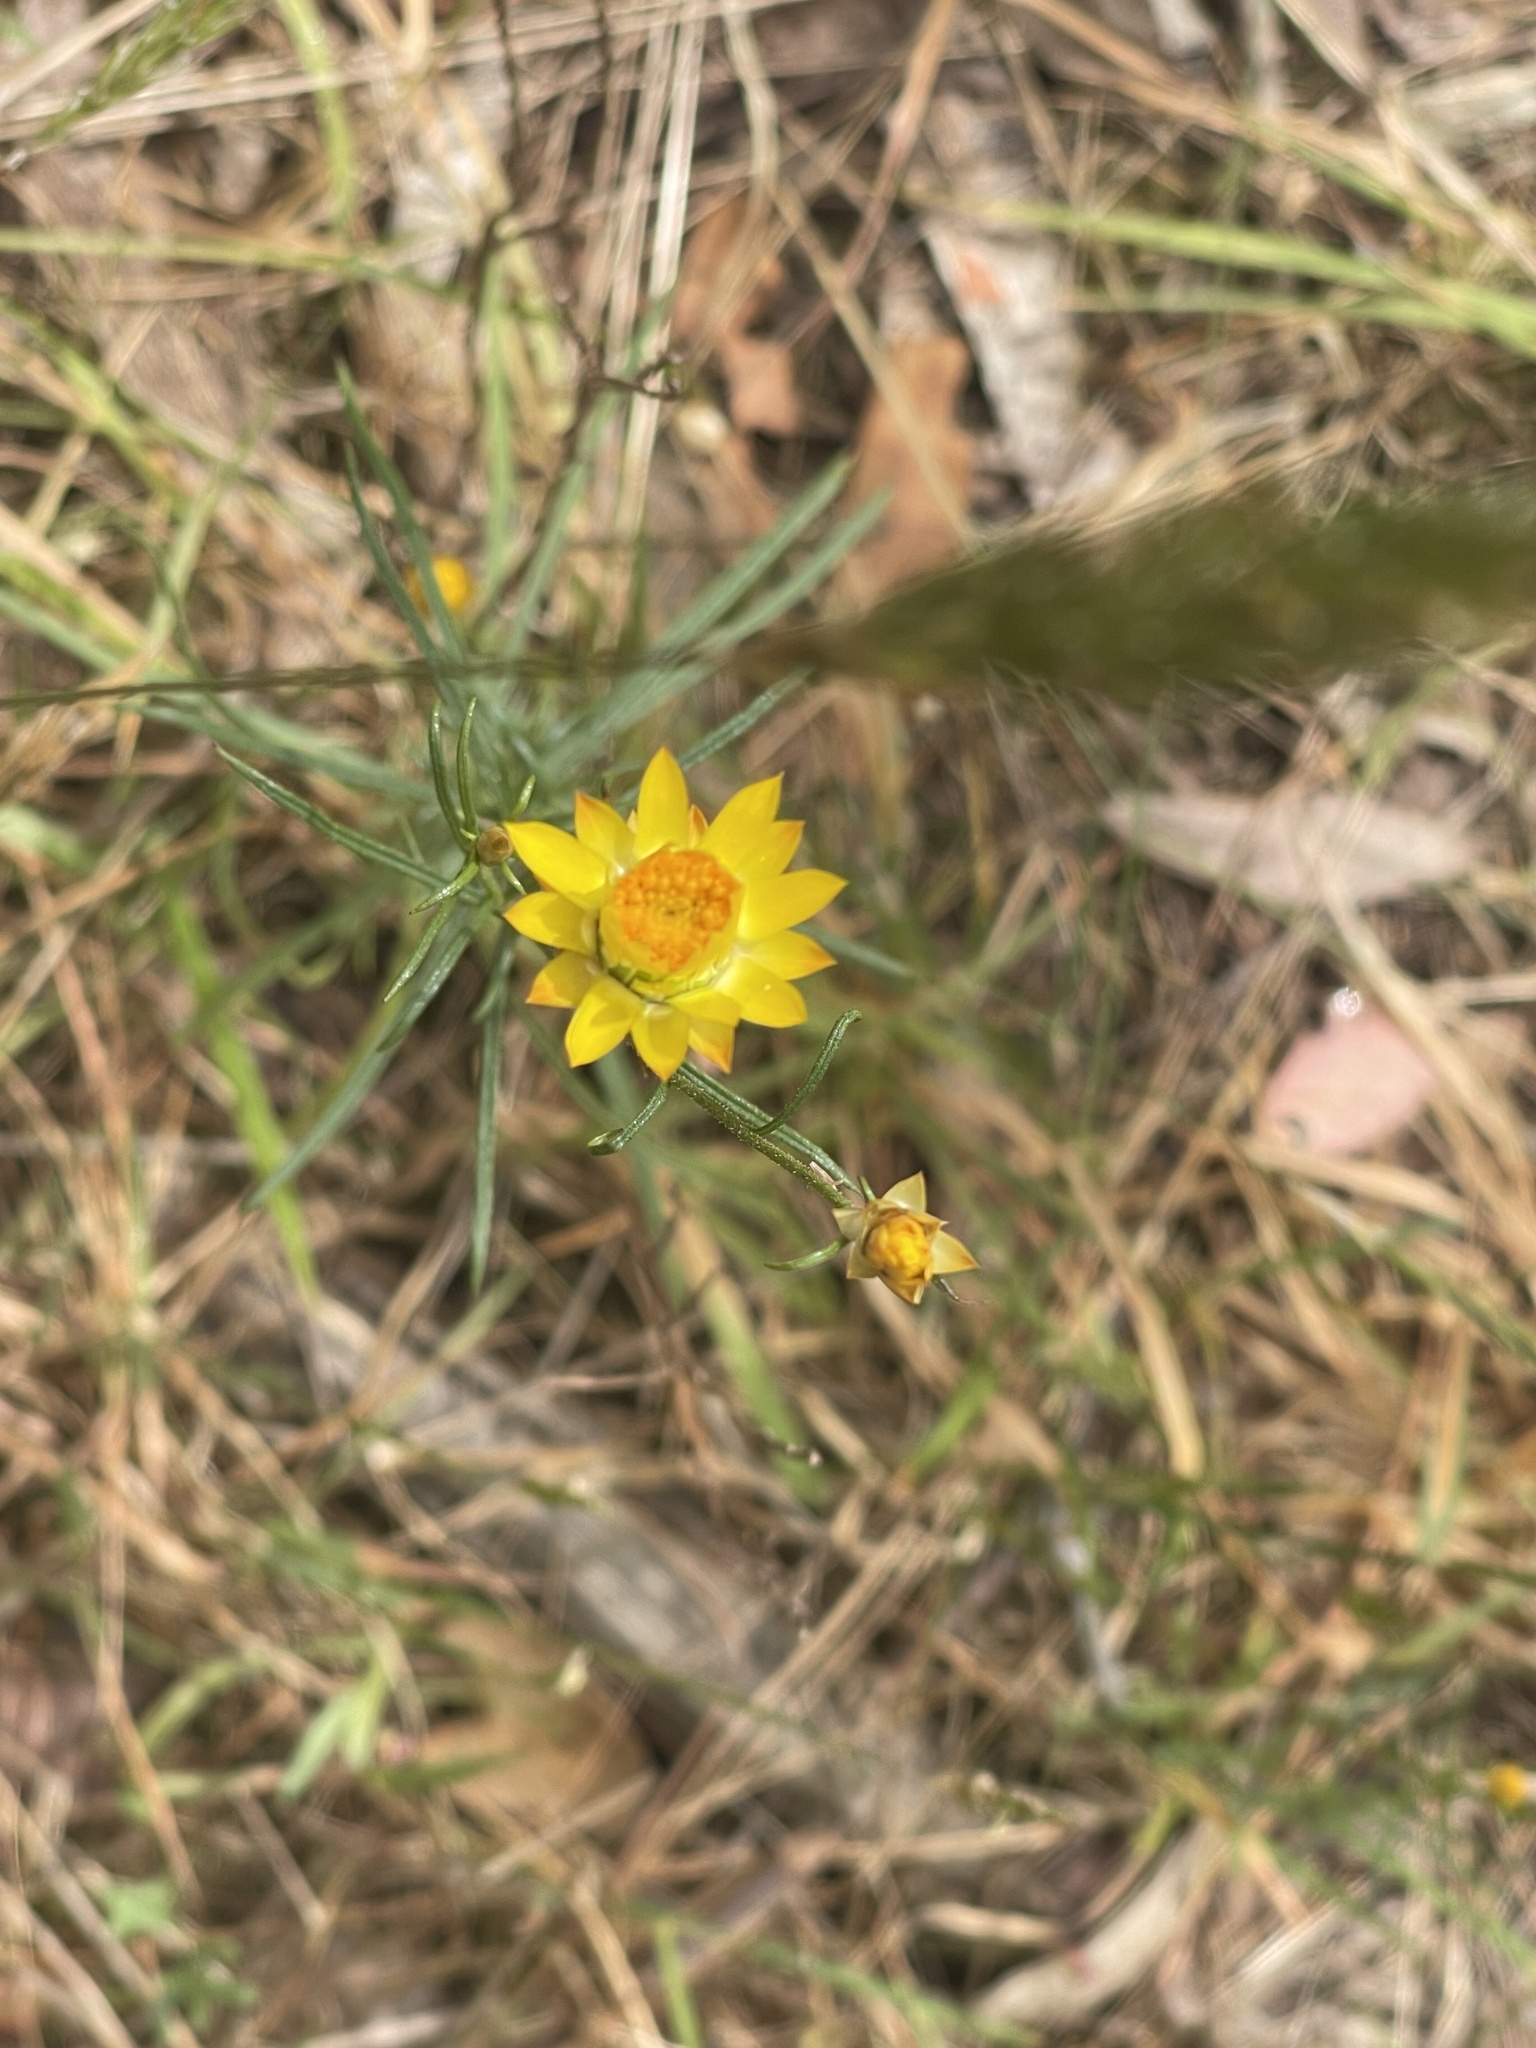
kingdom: Plantae
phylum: Tracheophyta
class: Magnoliopsida
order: Asterales
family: Asteraceae
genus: Xerochrysum
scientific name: Xerochrysum viscosum
